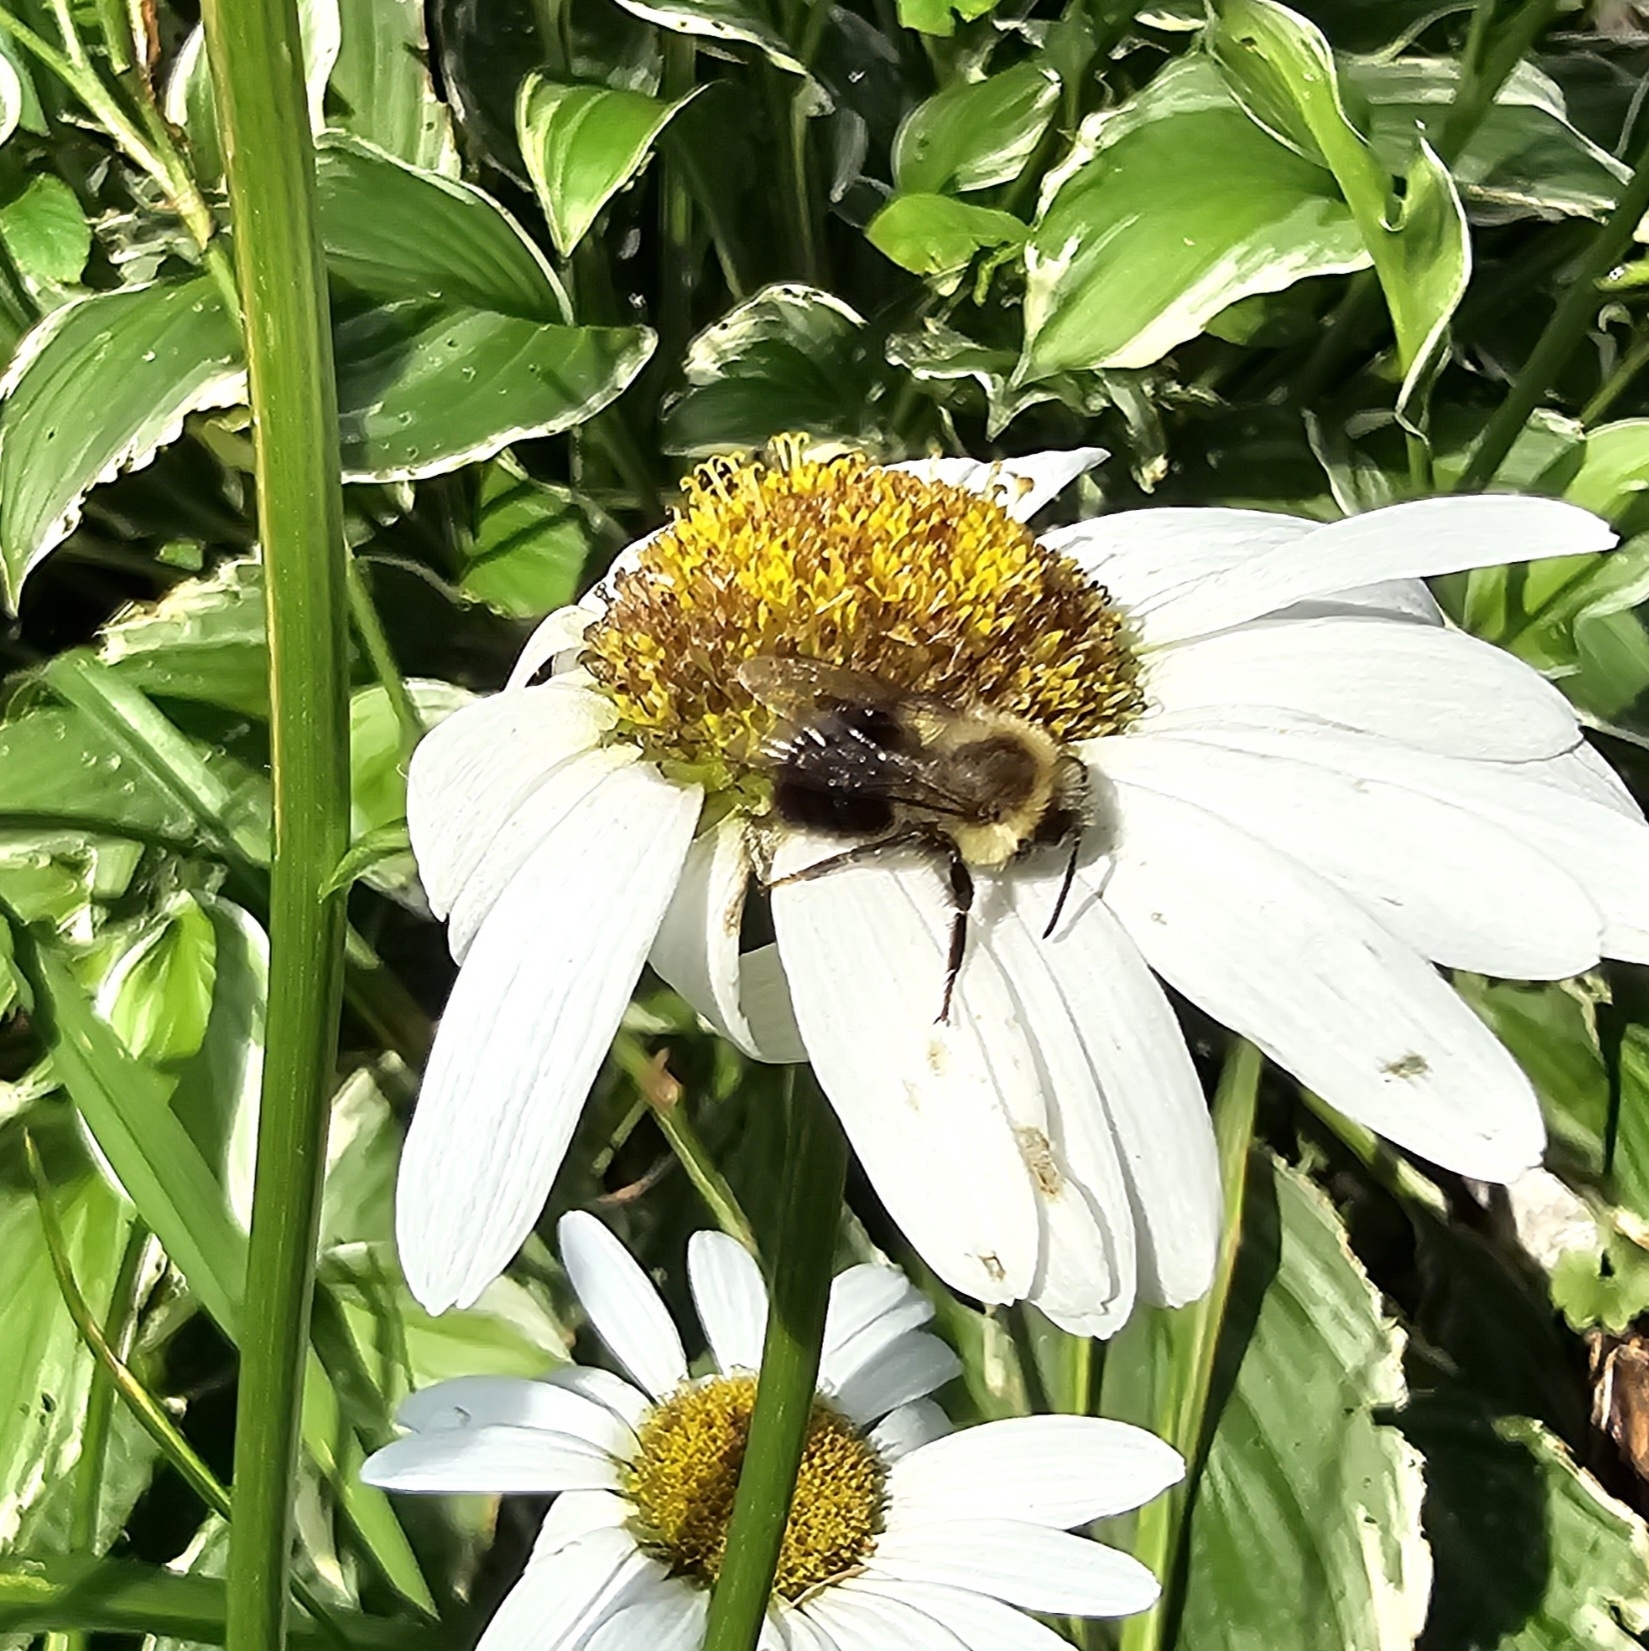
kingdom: Animalia
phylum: Arthropoda
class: Insecta
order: Hymenoptera
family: Apidae
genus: Bombus
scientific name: Bombus impatiens
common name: Common eastern bumble bee
